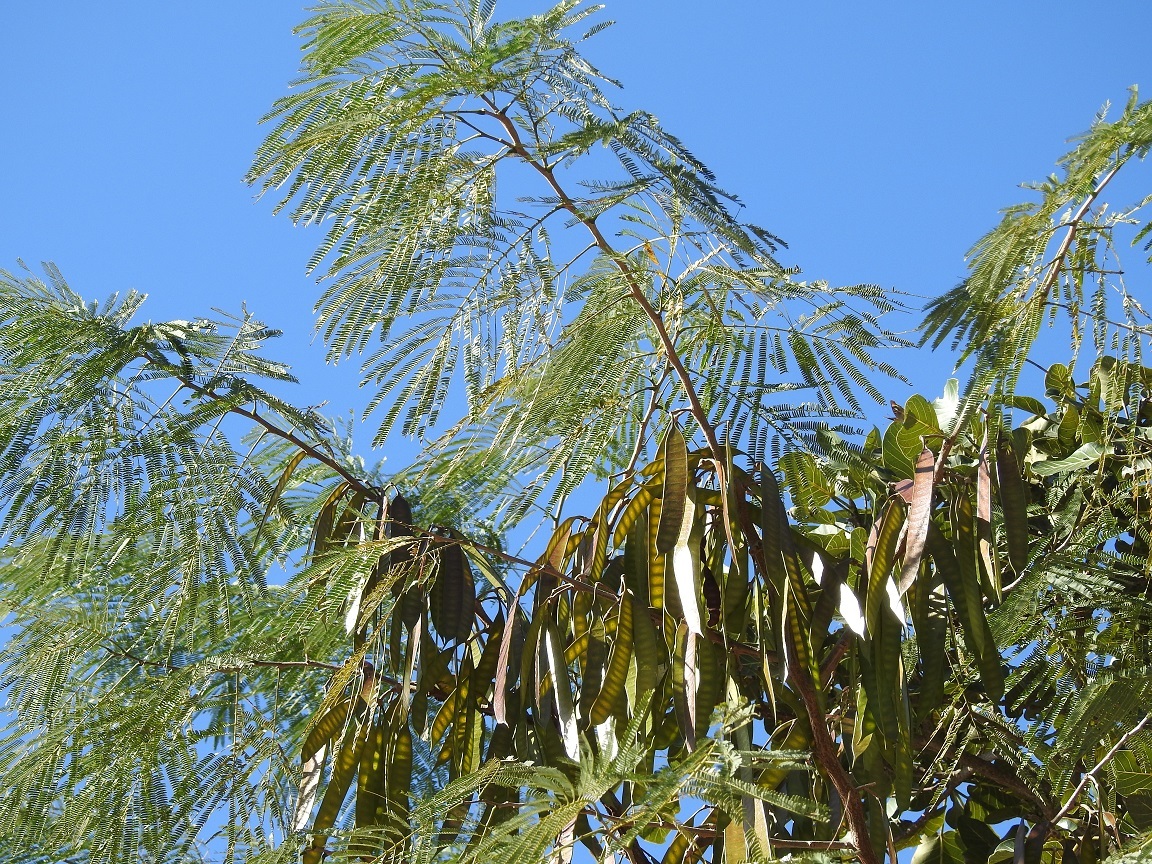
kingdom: Plantae
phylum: Tracheophyta
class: Magnoliopsida
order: Fabales
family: Fabaceae
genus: Leucaena
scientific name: Leucaena diversifolia
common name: Red leucaena
